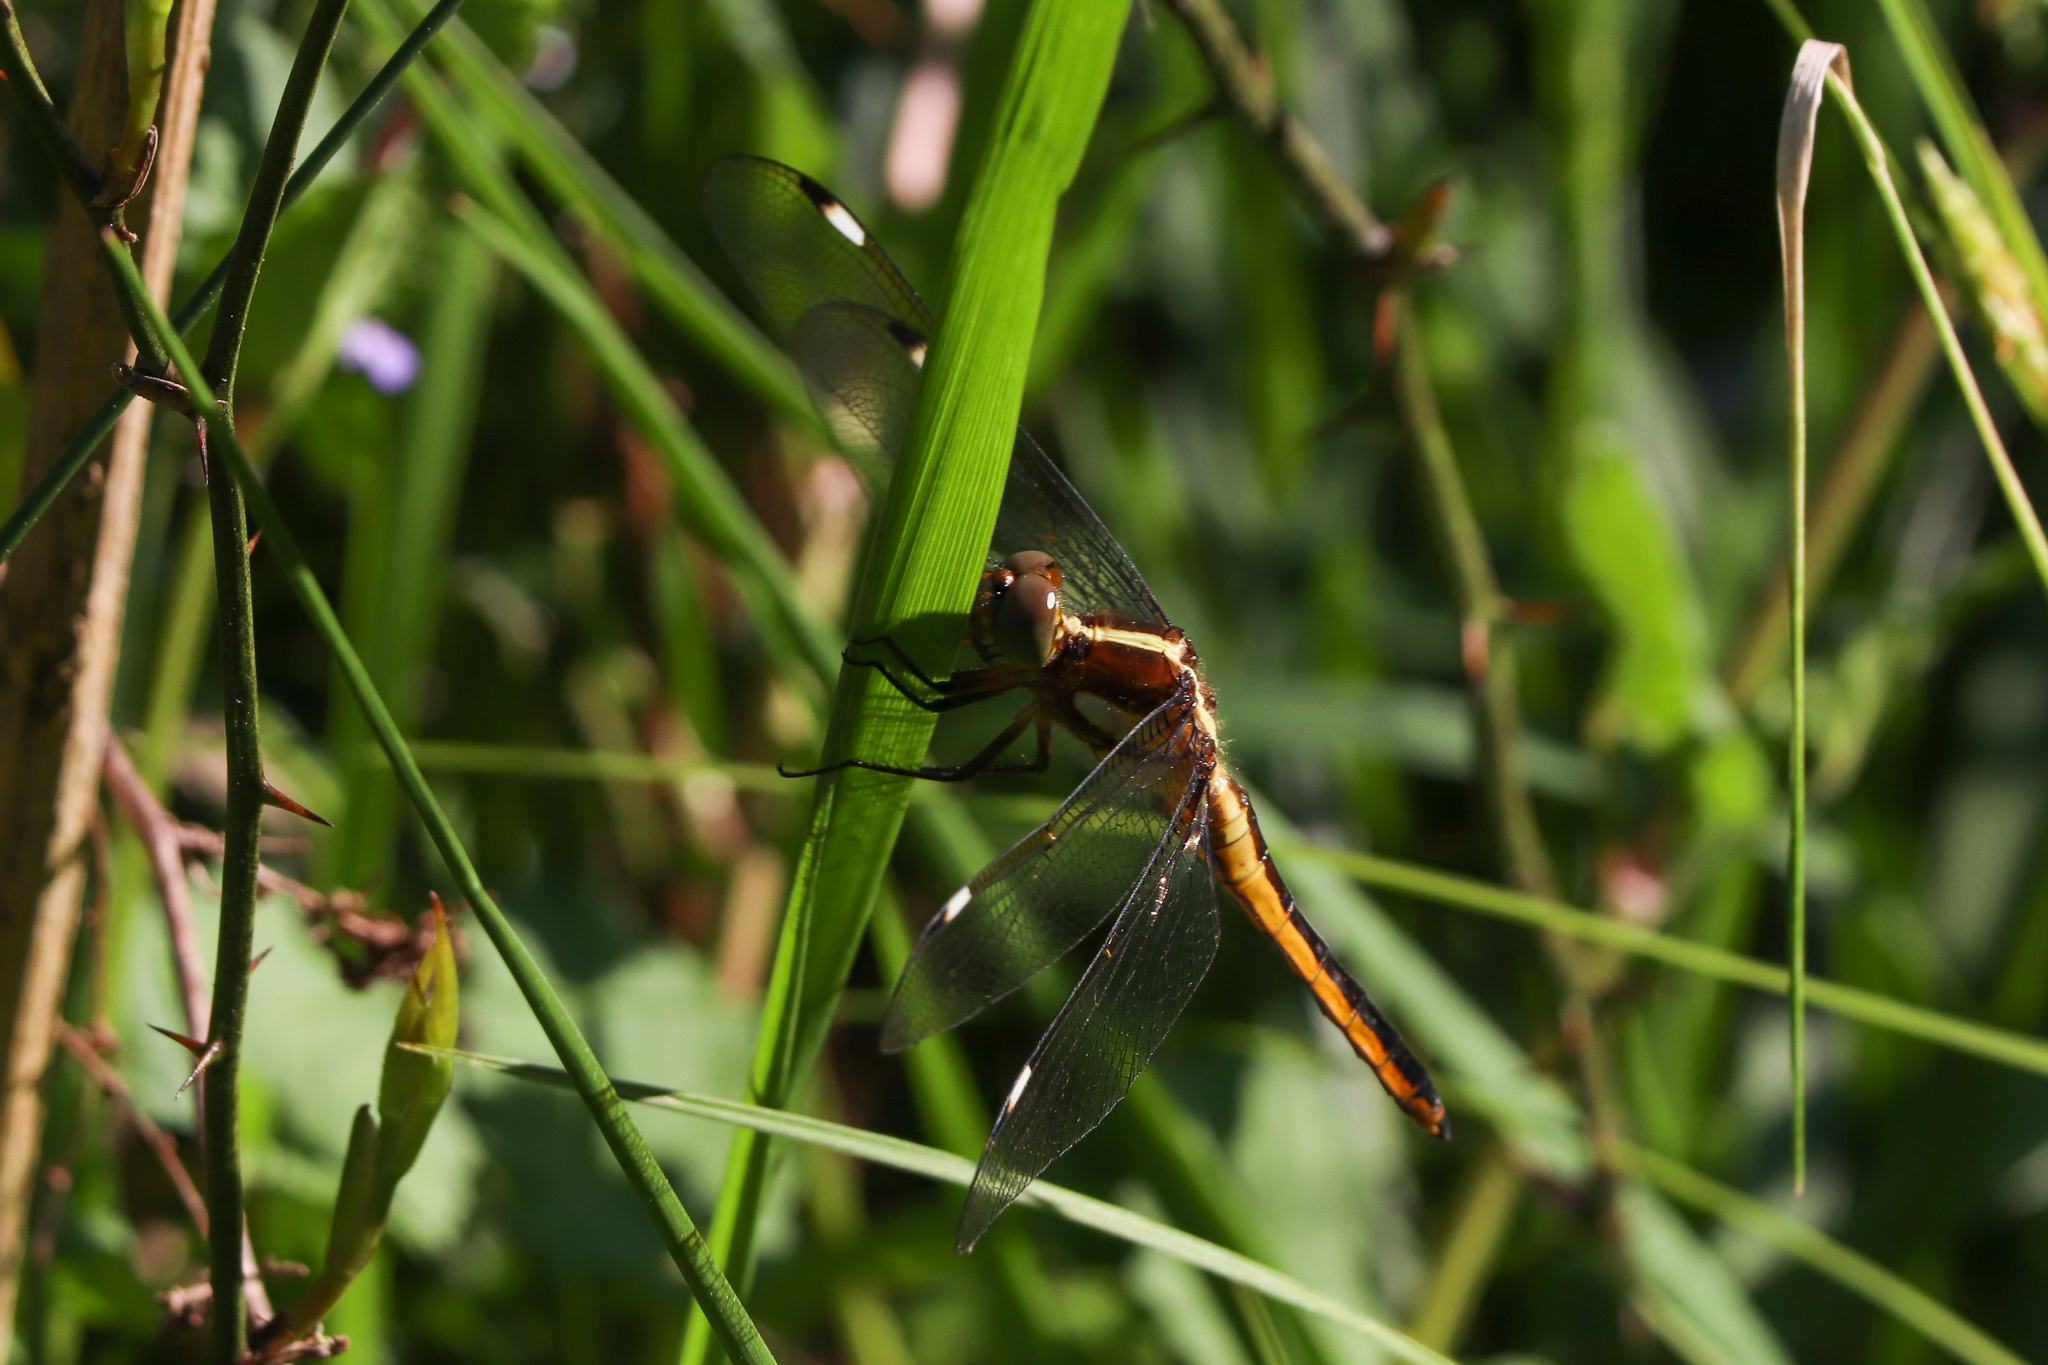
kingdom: Animalia
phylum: Arthropoda
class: Insecta
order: Odonata
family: Libellulidae
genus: Libellula
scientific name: Libellula cyanea
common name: Spangled skimmer
